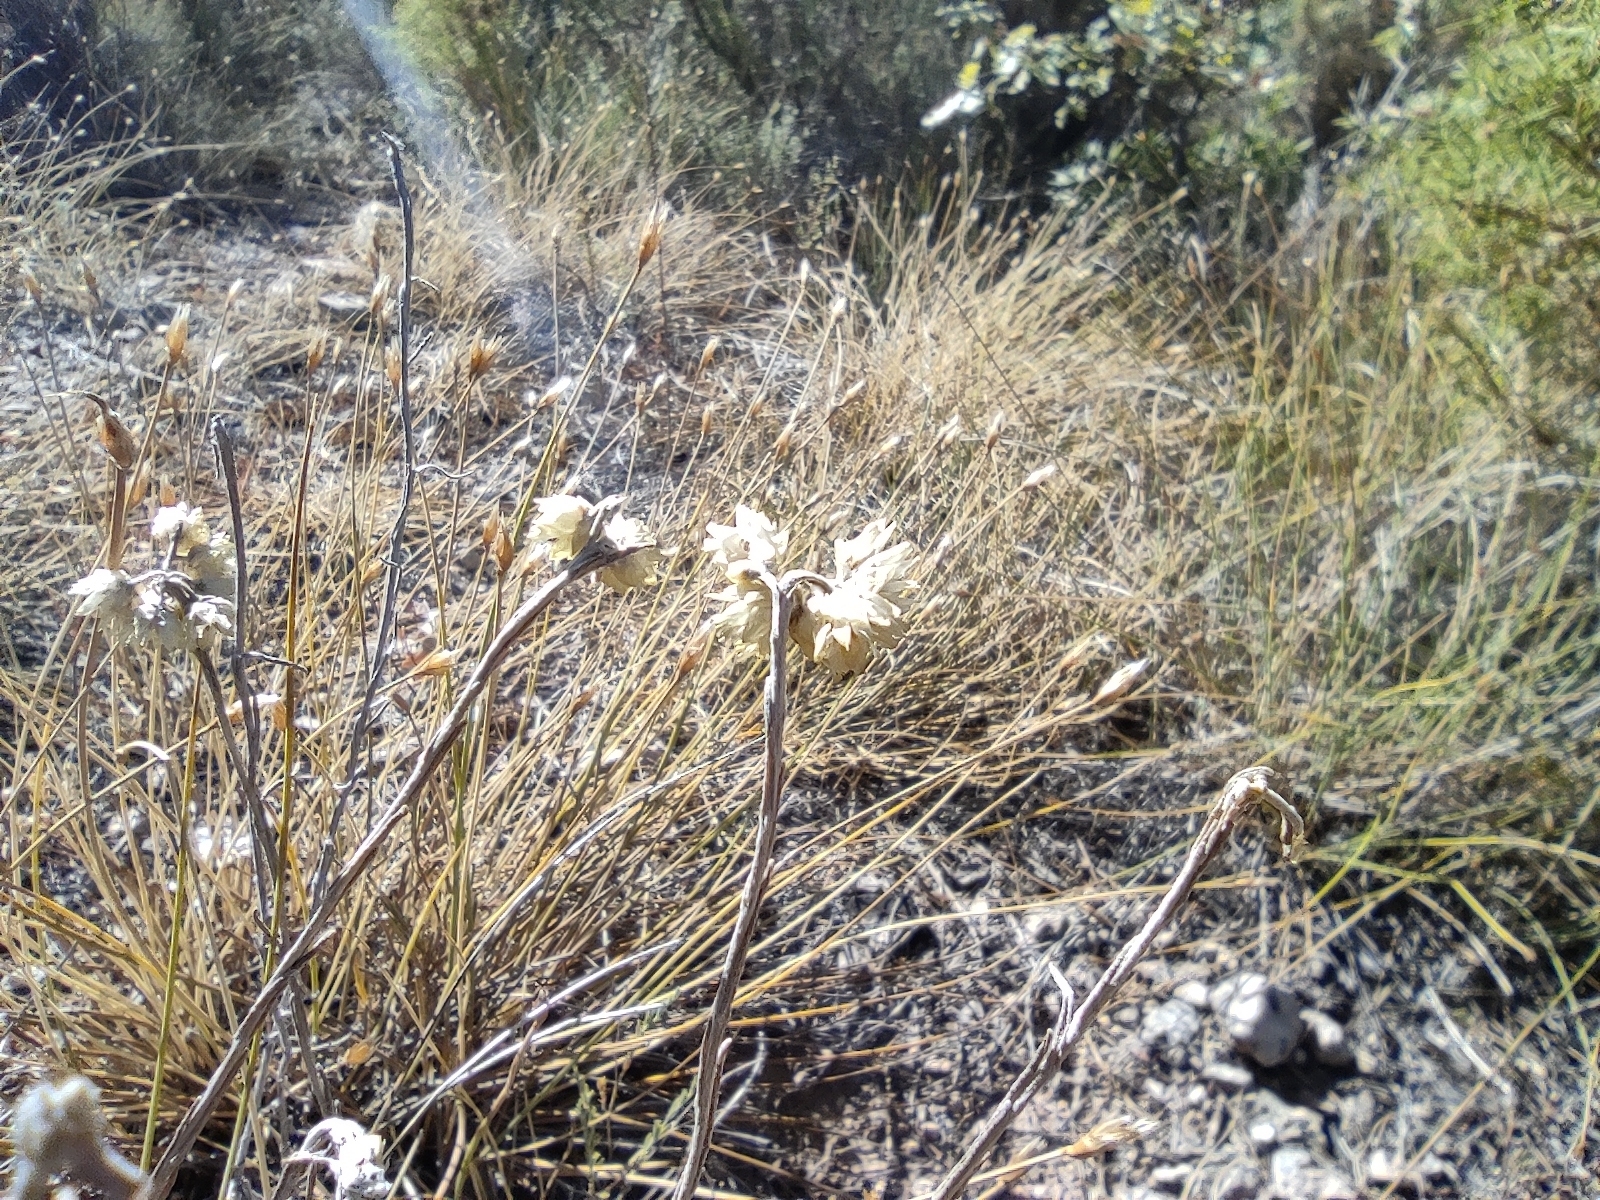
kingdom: Plantae
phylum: Tracheophyta
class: Magnoliopsida
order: Asterales
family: Asteraceae
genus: Helichrysum
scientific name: Helichrysum stoechas
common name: Goldilocks
